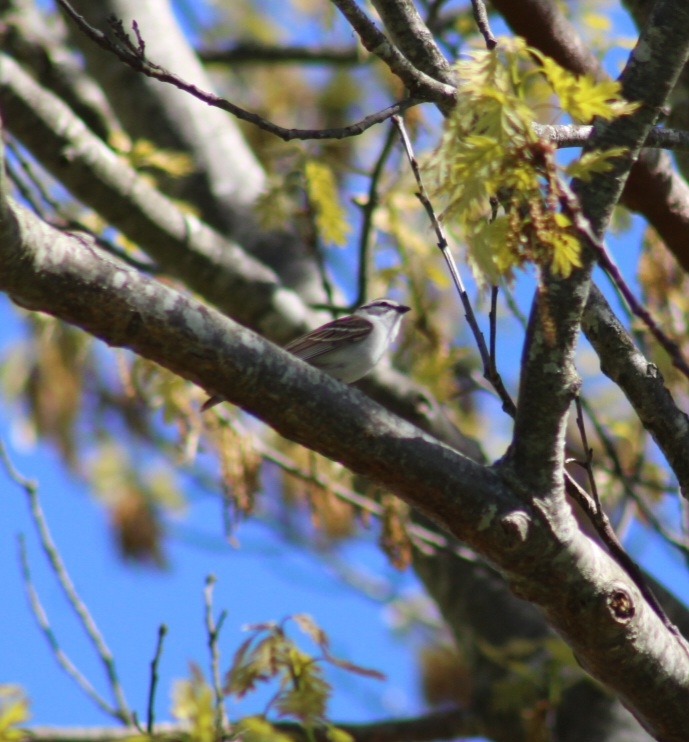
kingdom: Animalia
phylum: Chordata
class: Aves
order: Passeriformes
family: Passerellidae
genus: Spizella
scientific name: Spizella passerina
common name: Chipping sparrow
